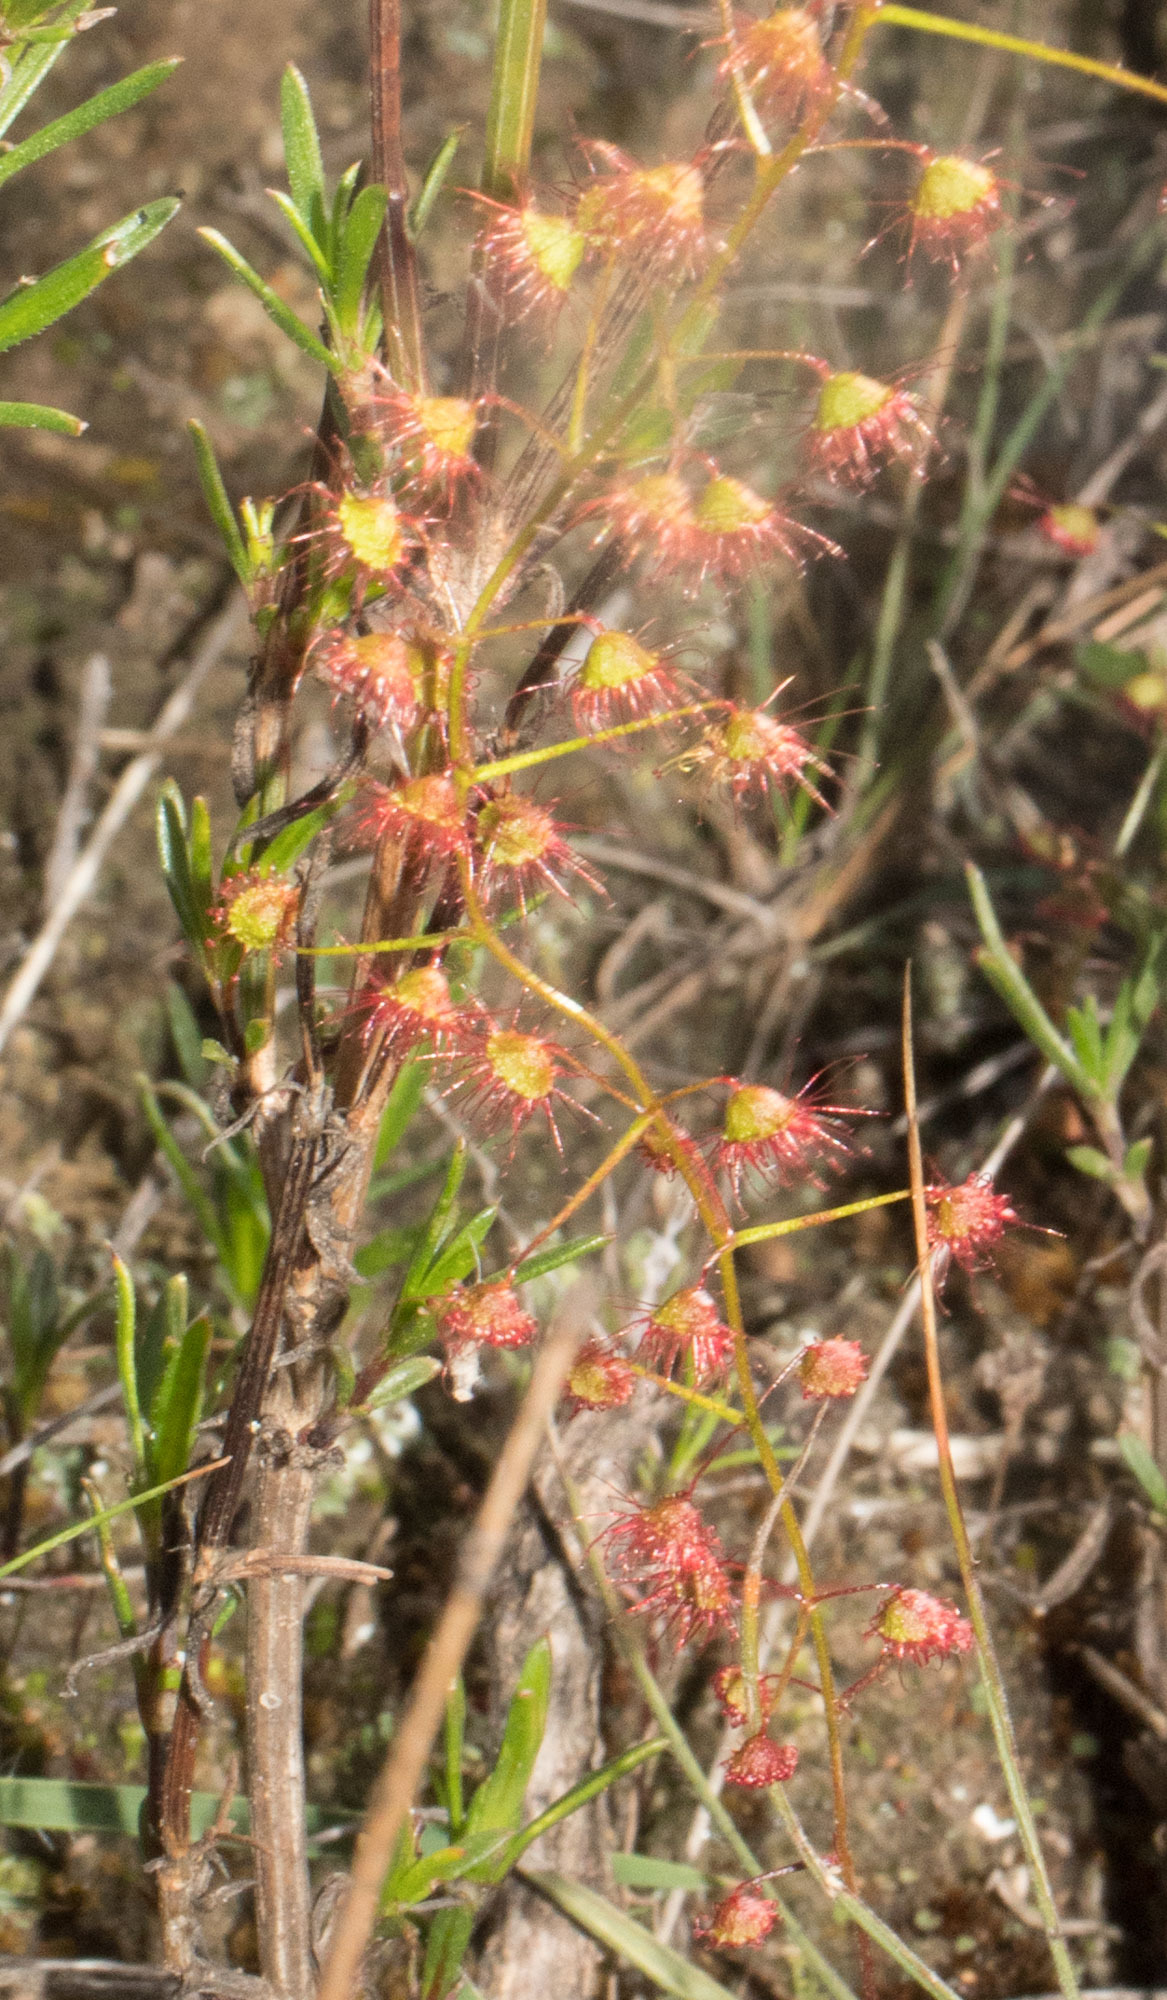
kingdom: Plantae
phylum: Tracheophyta
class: Magnoliopsida
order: Caryophyllales
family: Droseraceae
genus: Drosera
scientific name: Drosera macrantha
